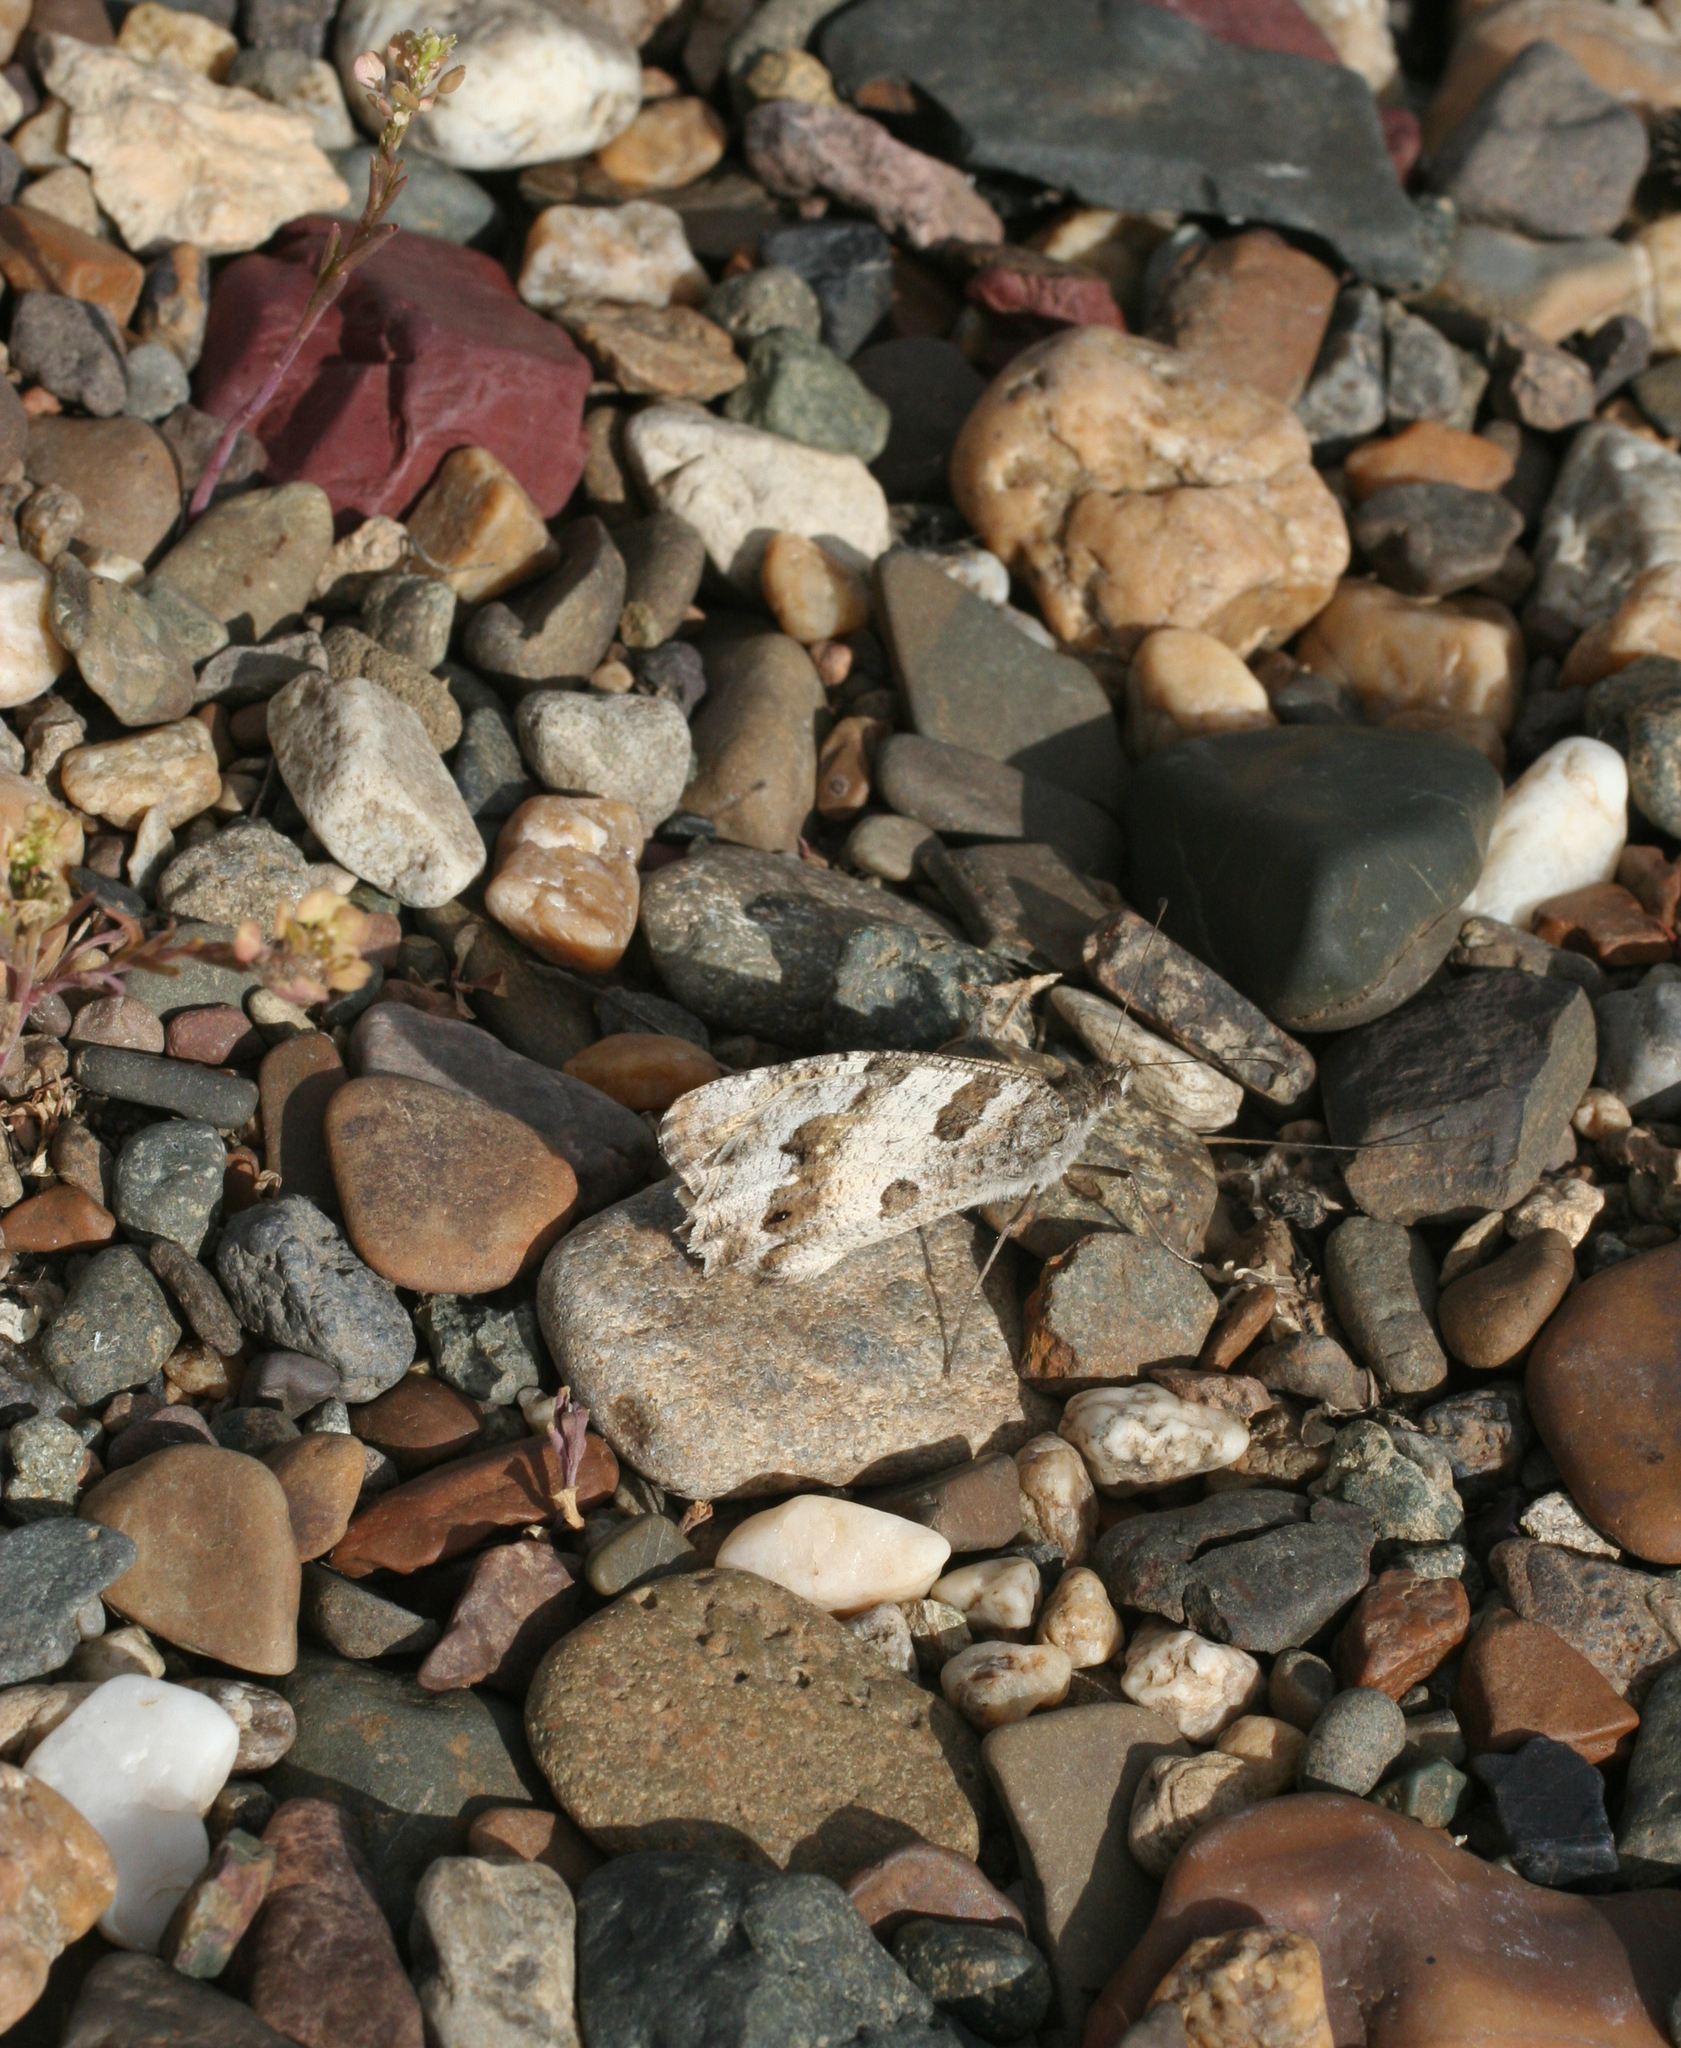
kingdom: Animalia
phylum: Arthropoda
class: Insecta
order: Lepidoptera
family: Nymphalidae
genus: Satyrus
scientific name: Satyrus briseis
